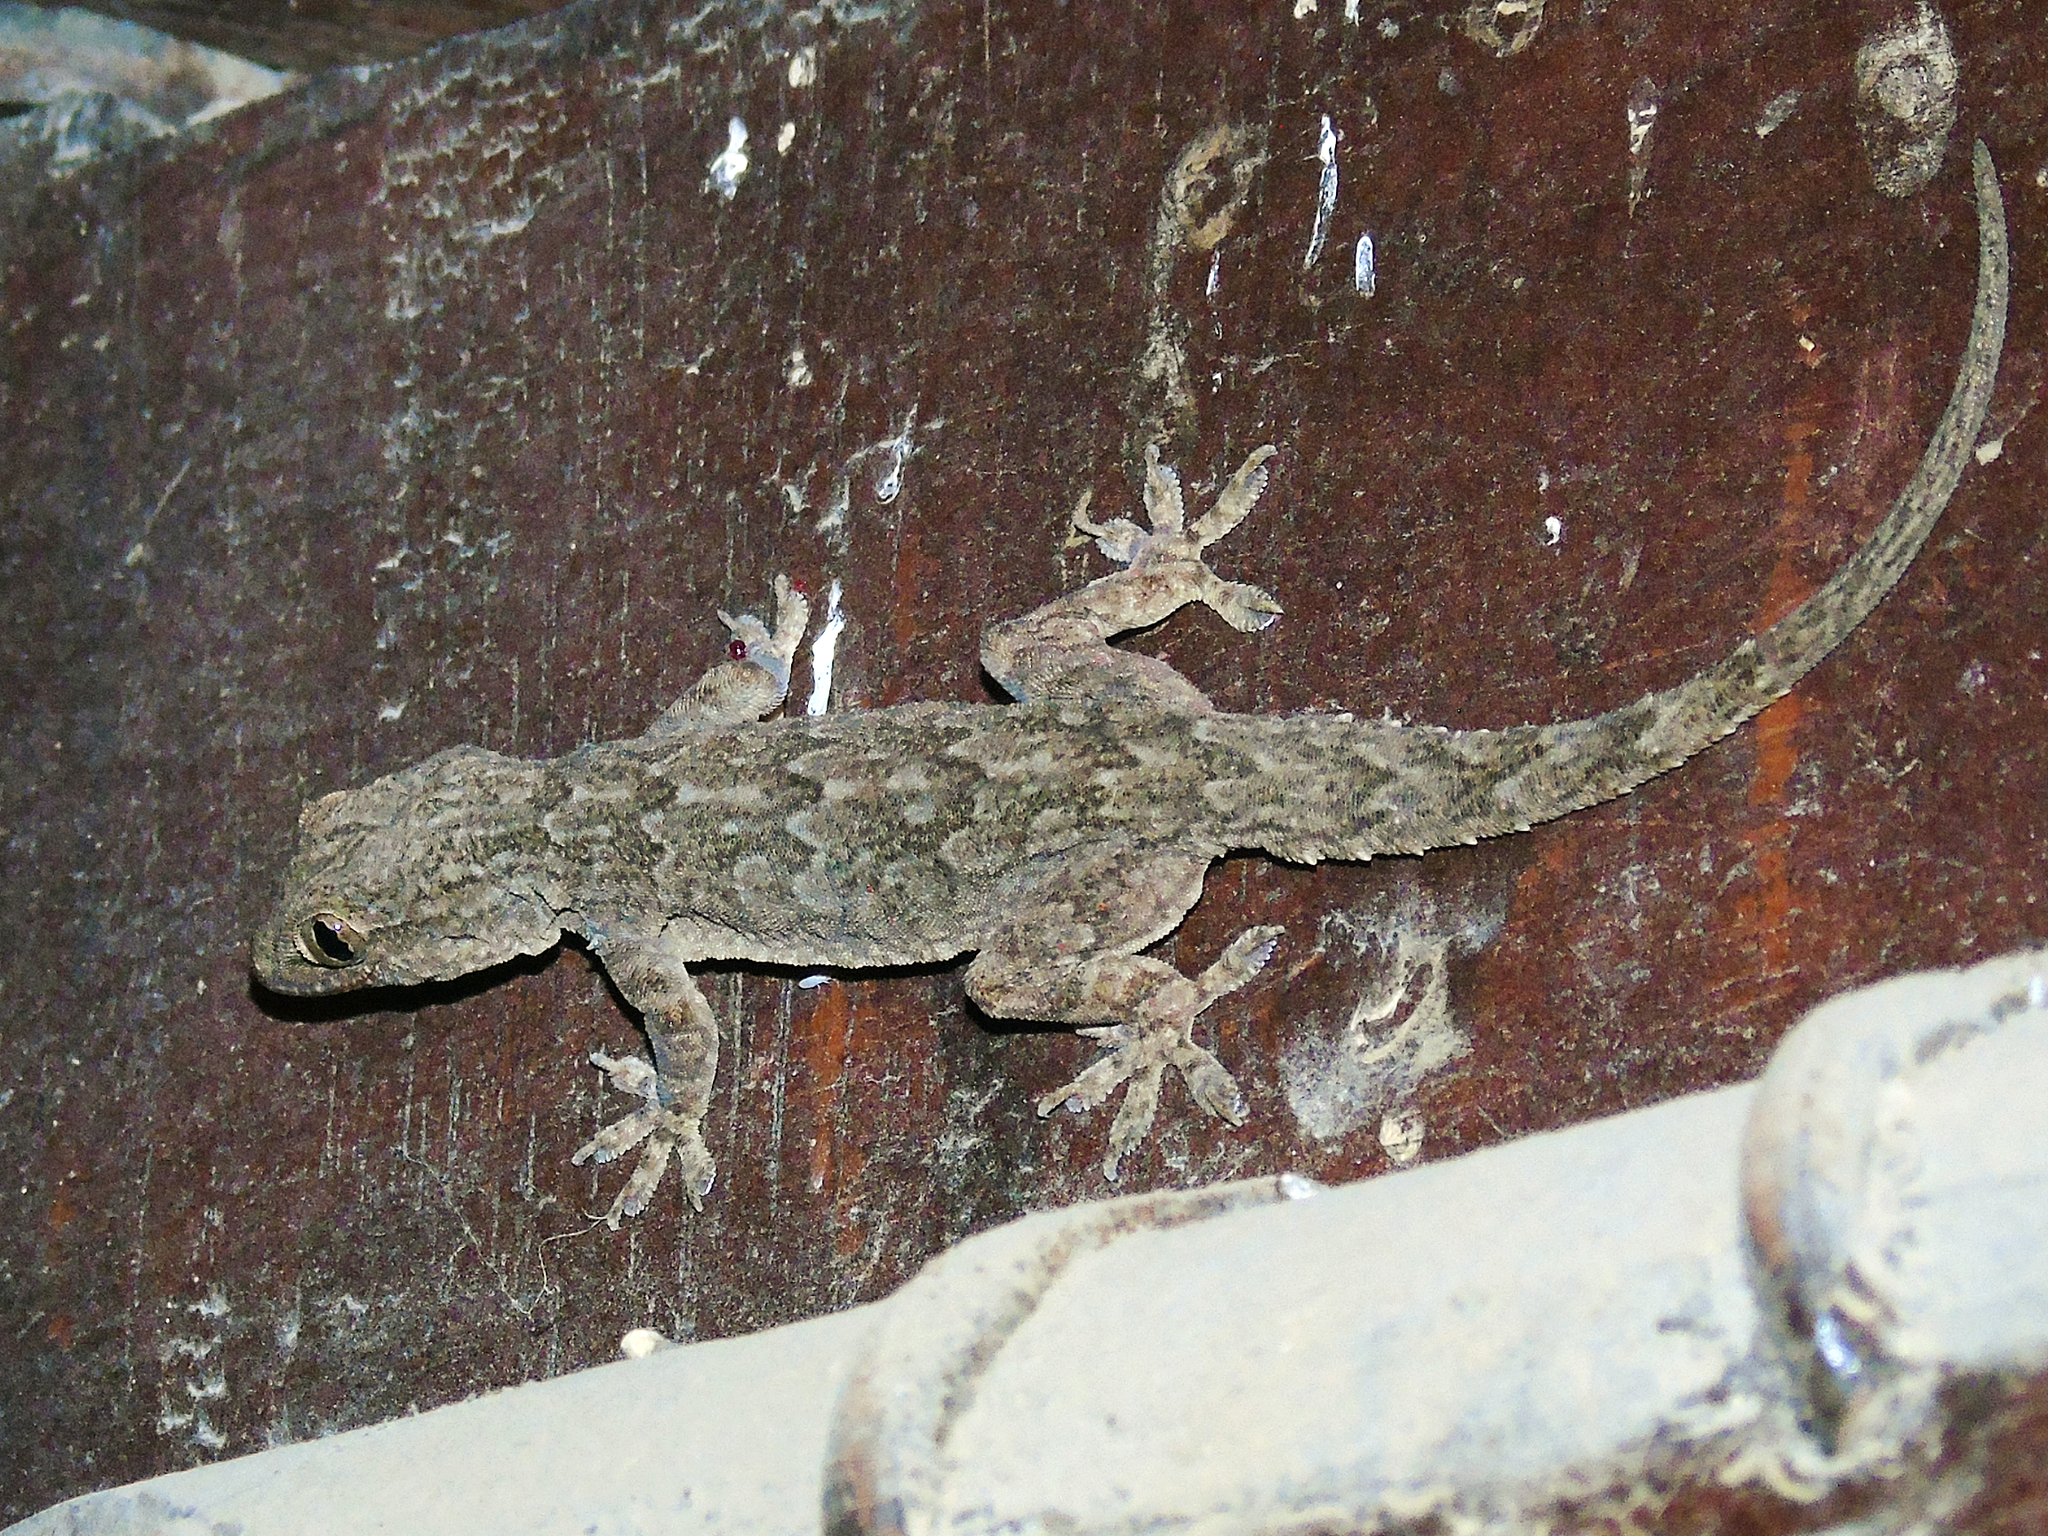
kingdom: Animalia
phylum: Chordata
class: Squamata
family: Gekkonidae
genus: Hemidactylus
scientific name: Hemidactylus flaviviridis
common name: Northern house gecko
